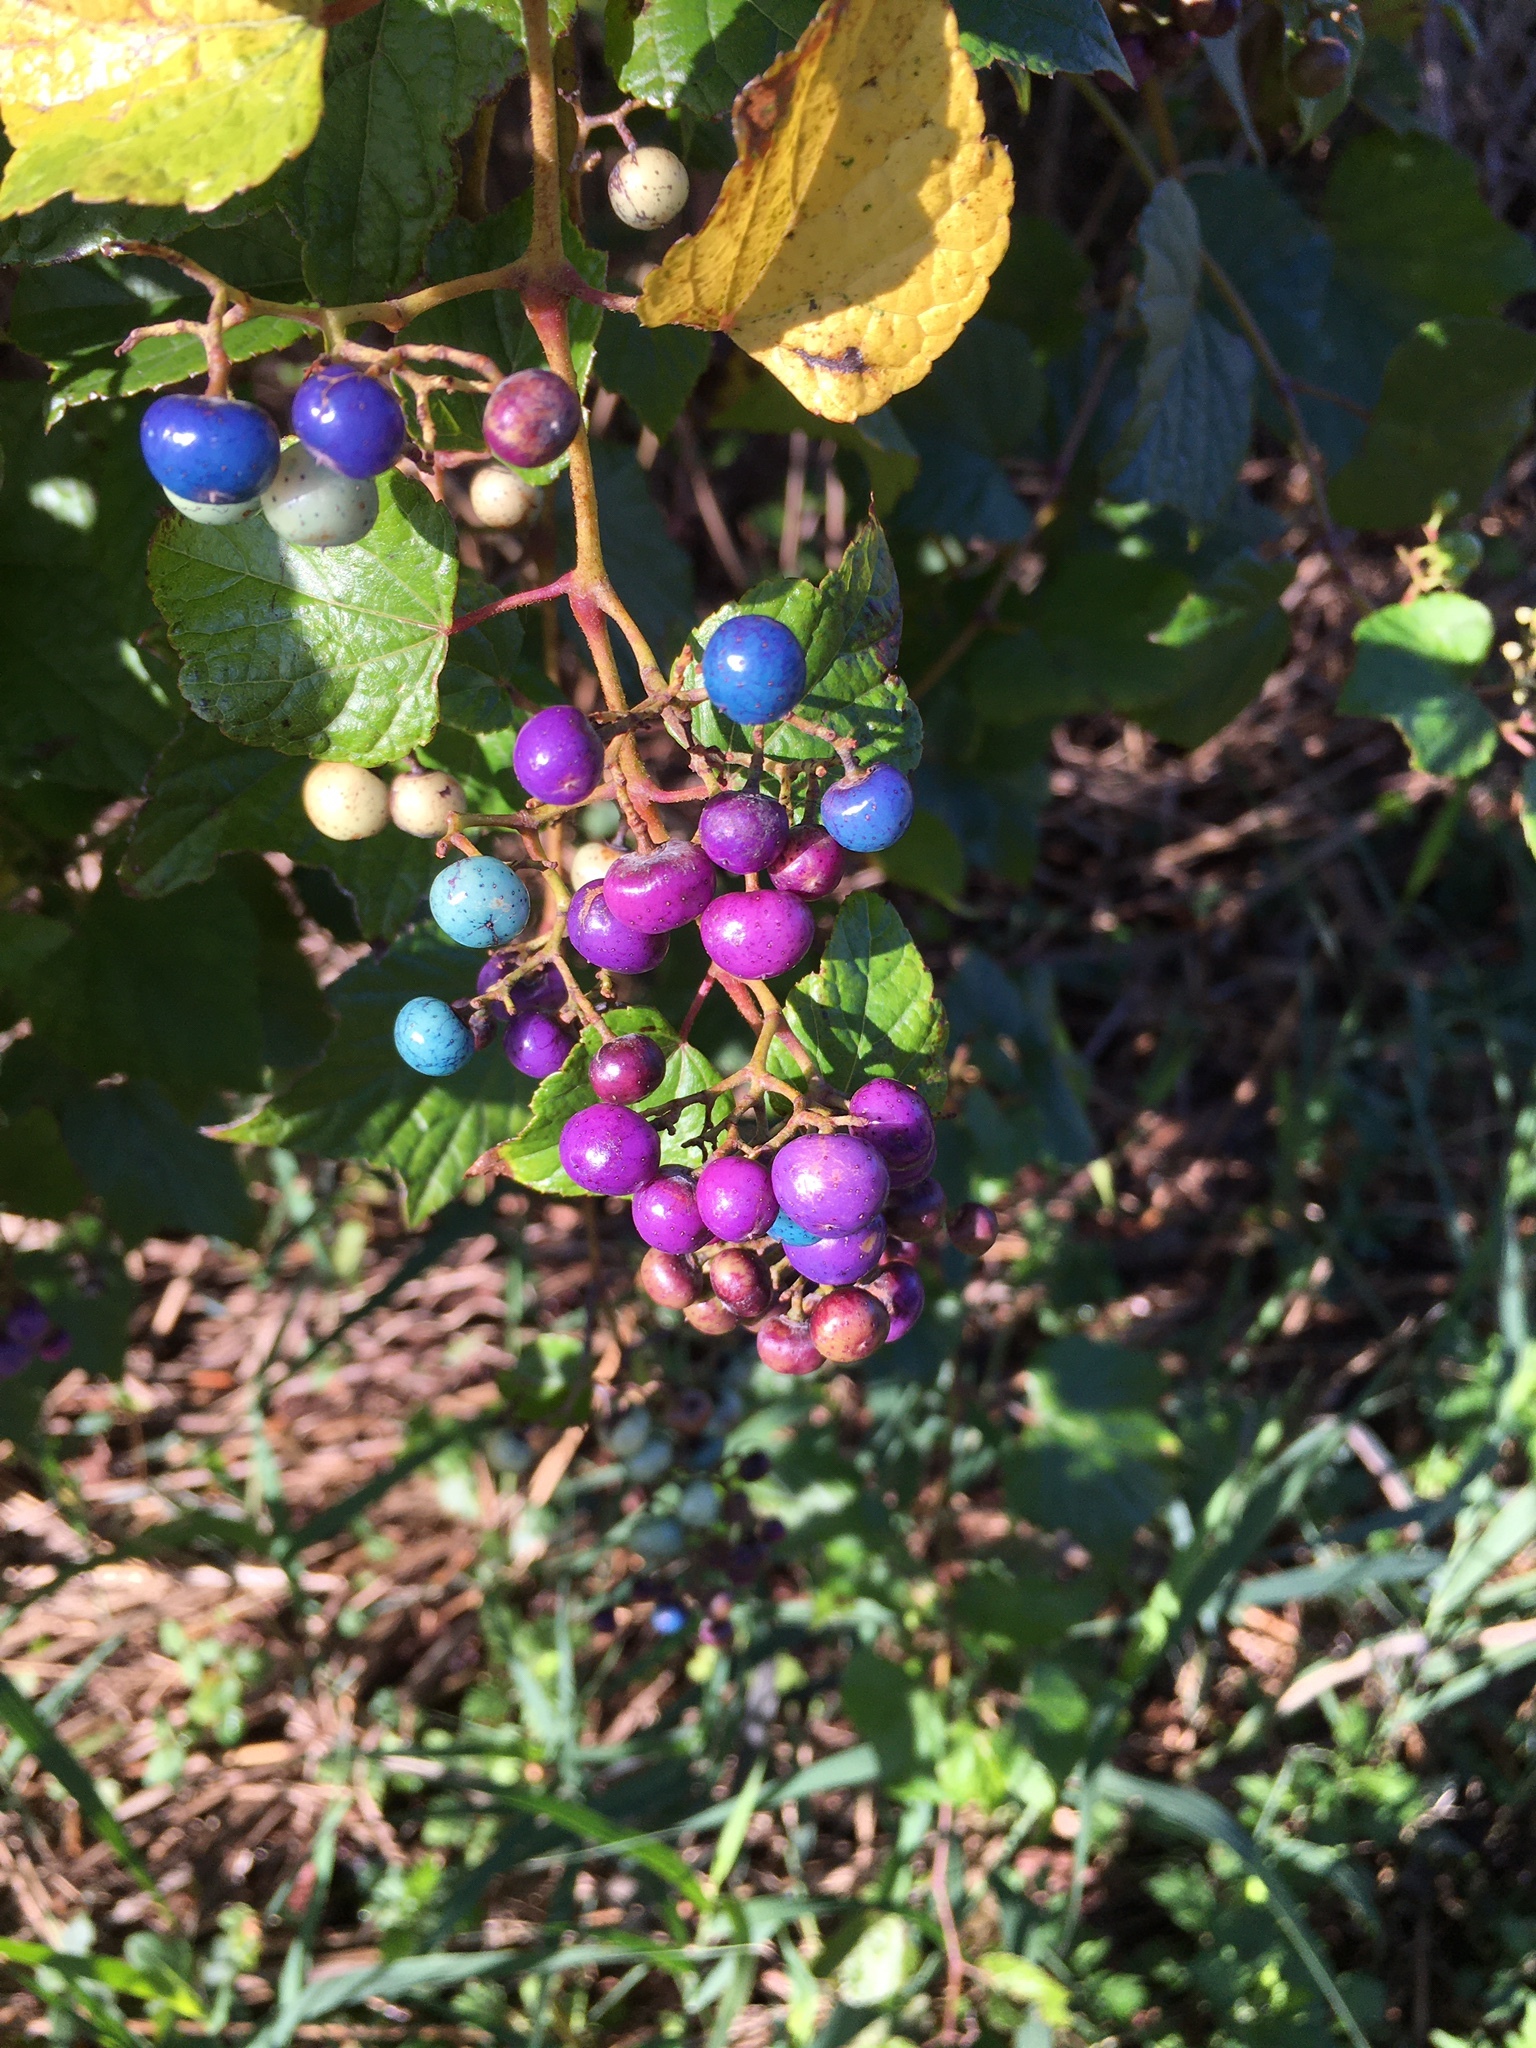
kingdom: Plantae
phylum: Tracheophyta
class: Magnoliopsida
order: Vitales
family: Vitaceae
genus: Ampelopsis
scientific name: Ampelopsis glandulosa
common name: Amur peppervine
